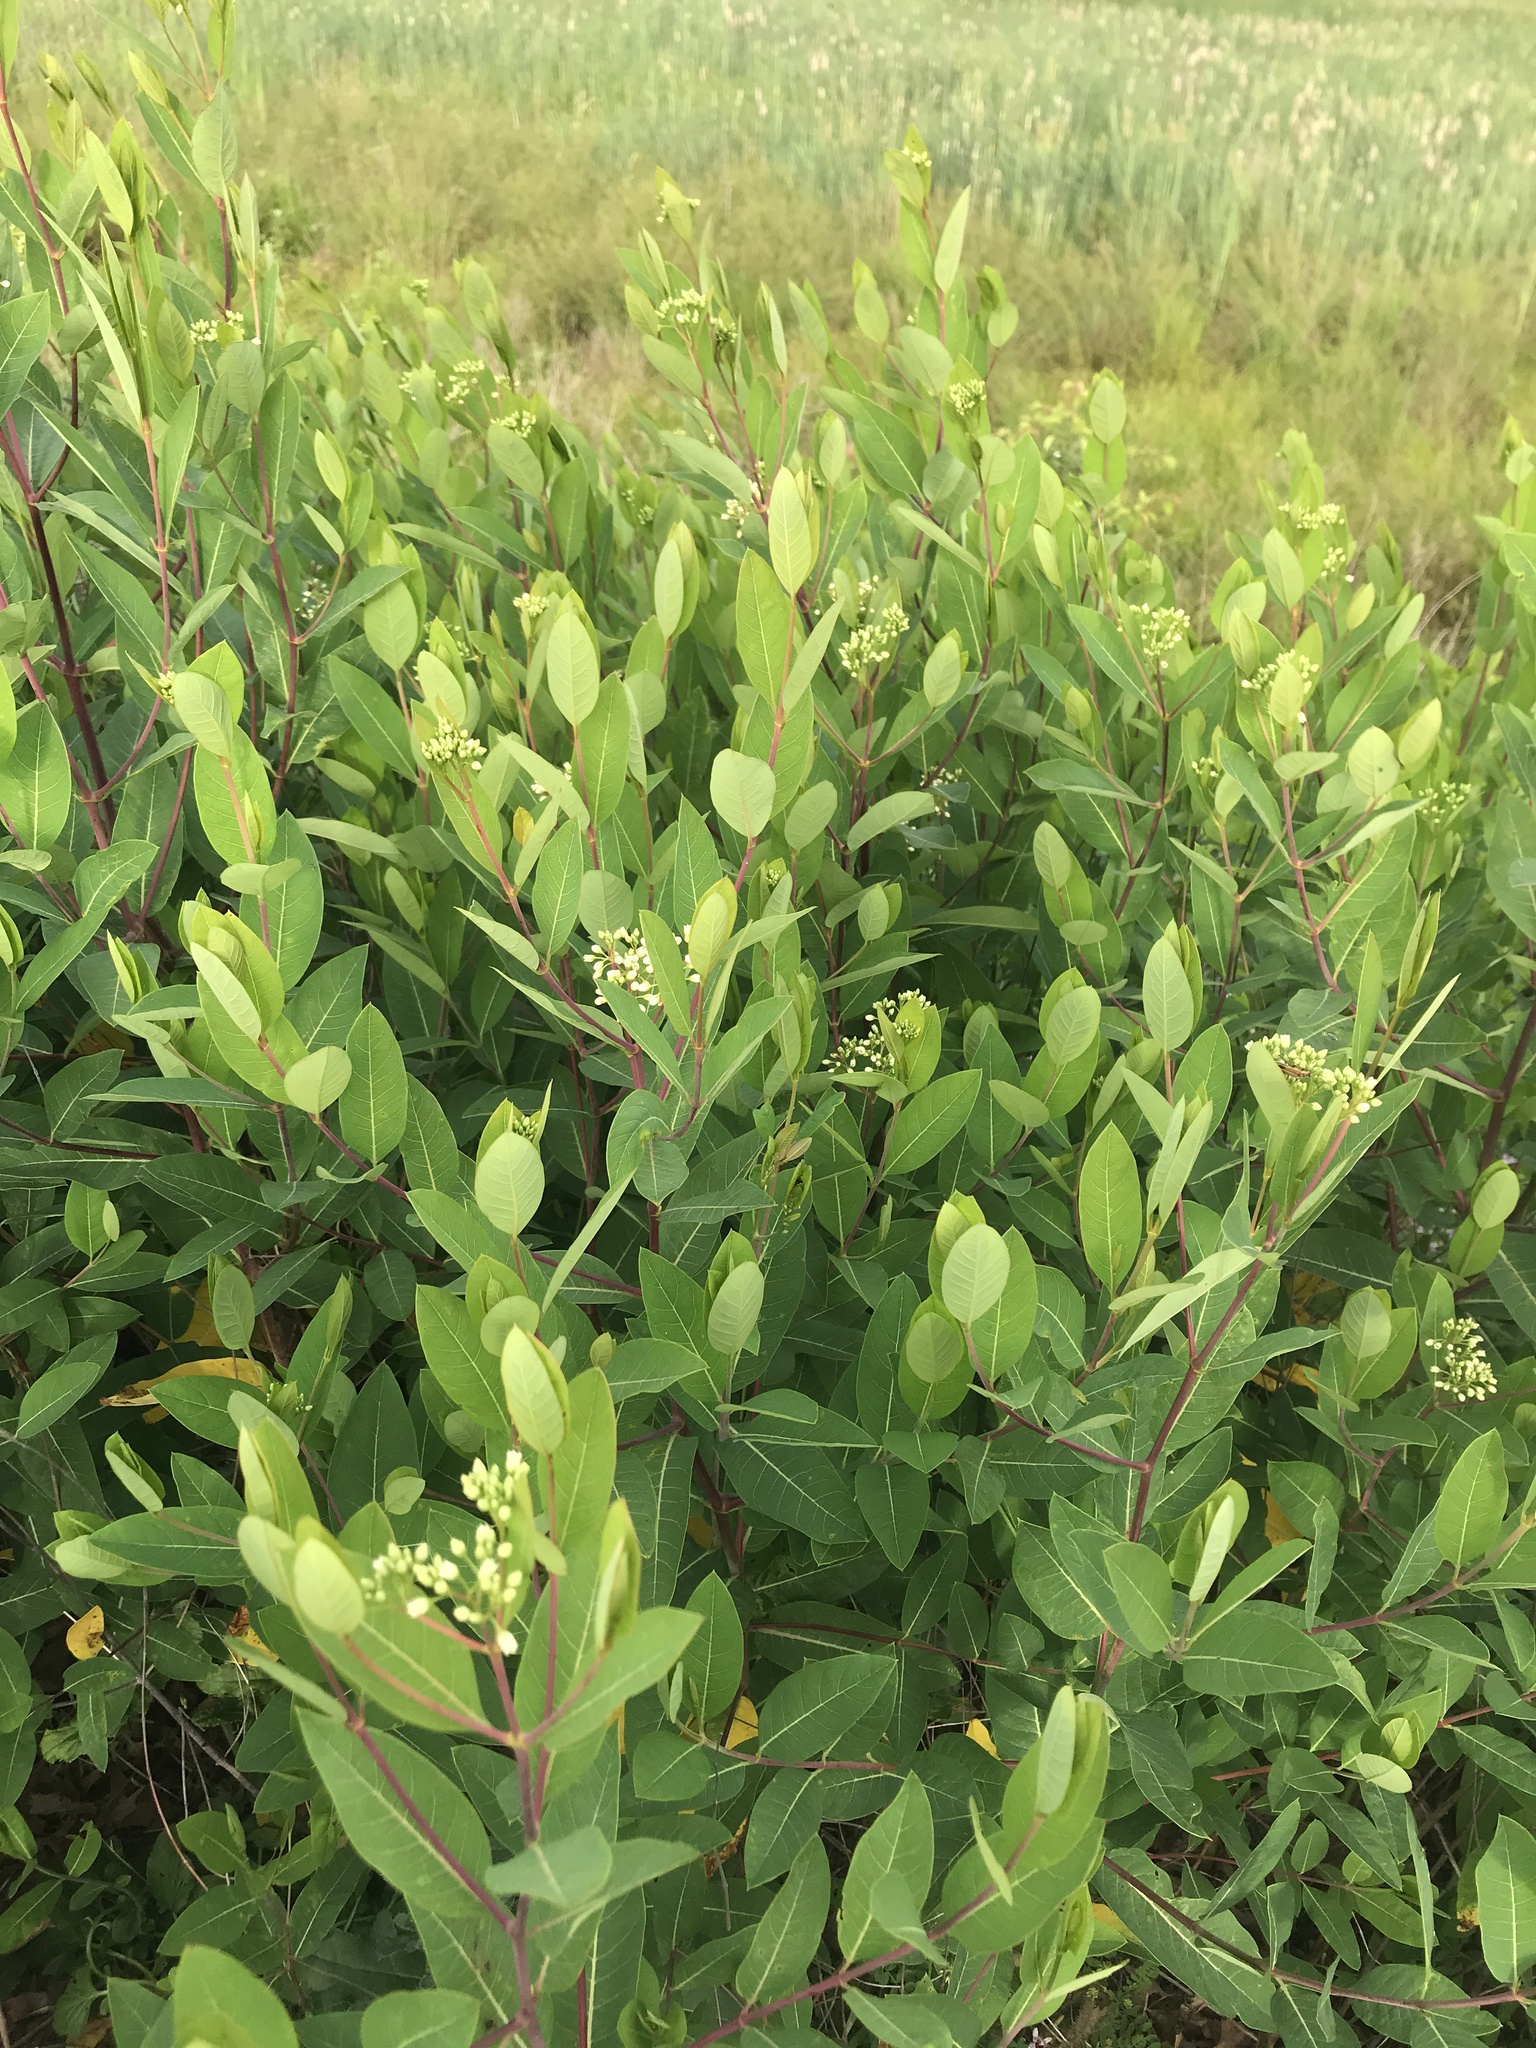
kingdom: Plantae
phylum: Tracheophyta
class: Magnoliopsida
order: Gentianales
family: Apocynaceae
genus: Apocynum
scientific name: Apocynum cannabinum
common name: Hemp dogbane
